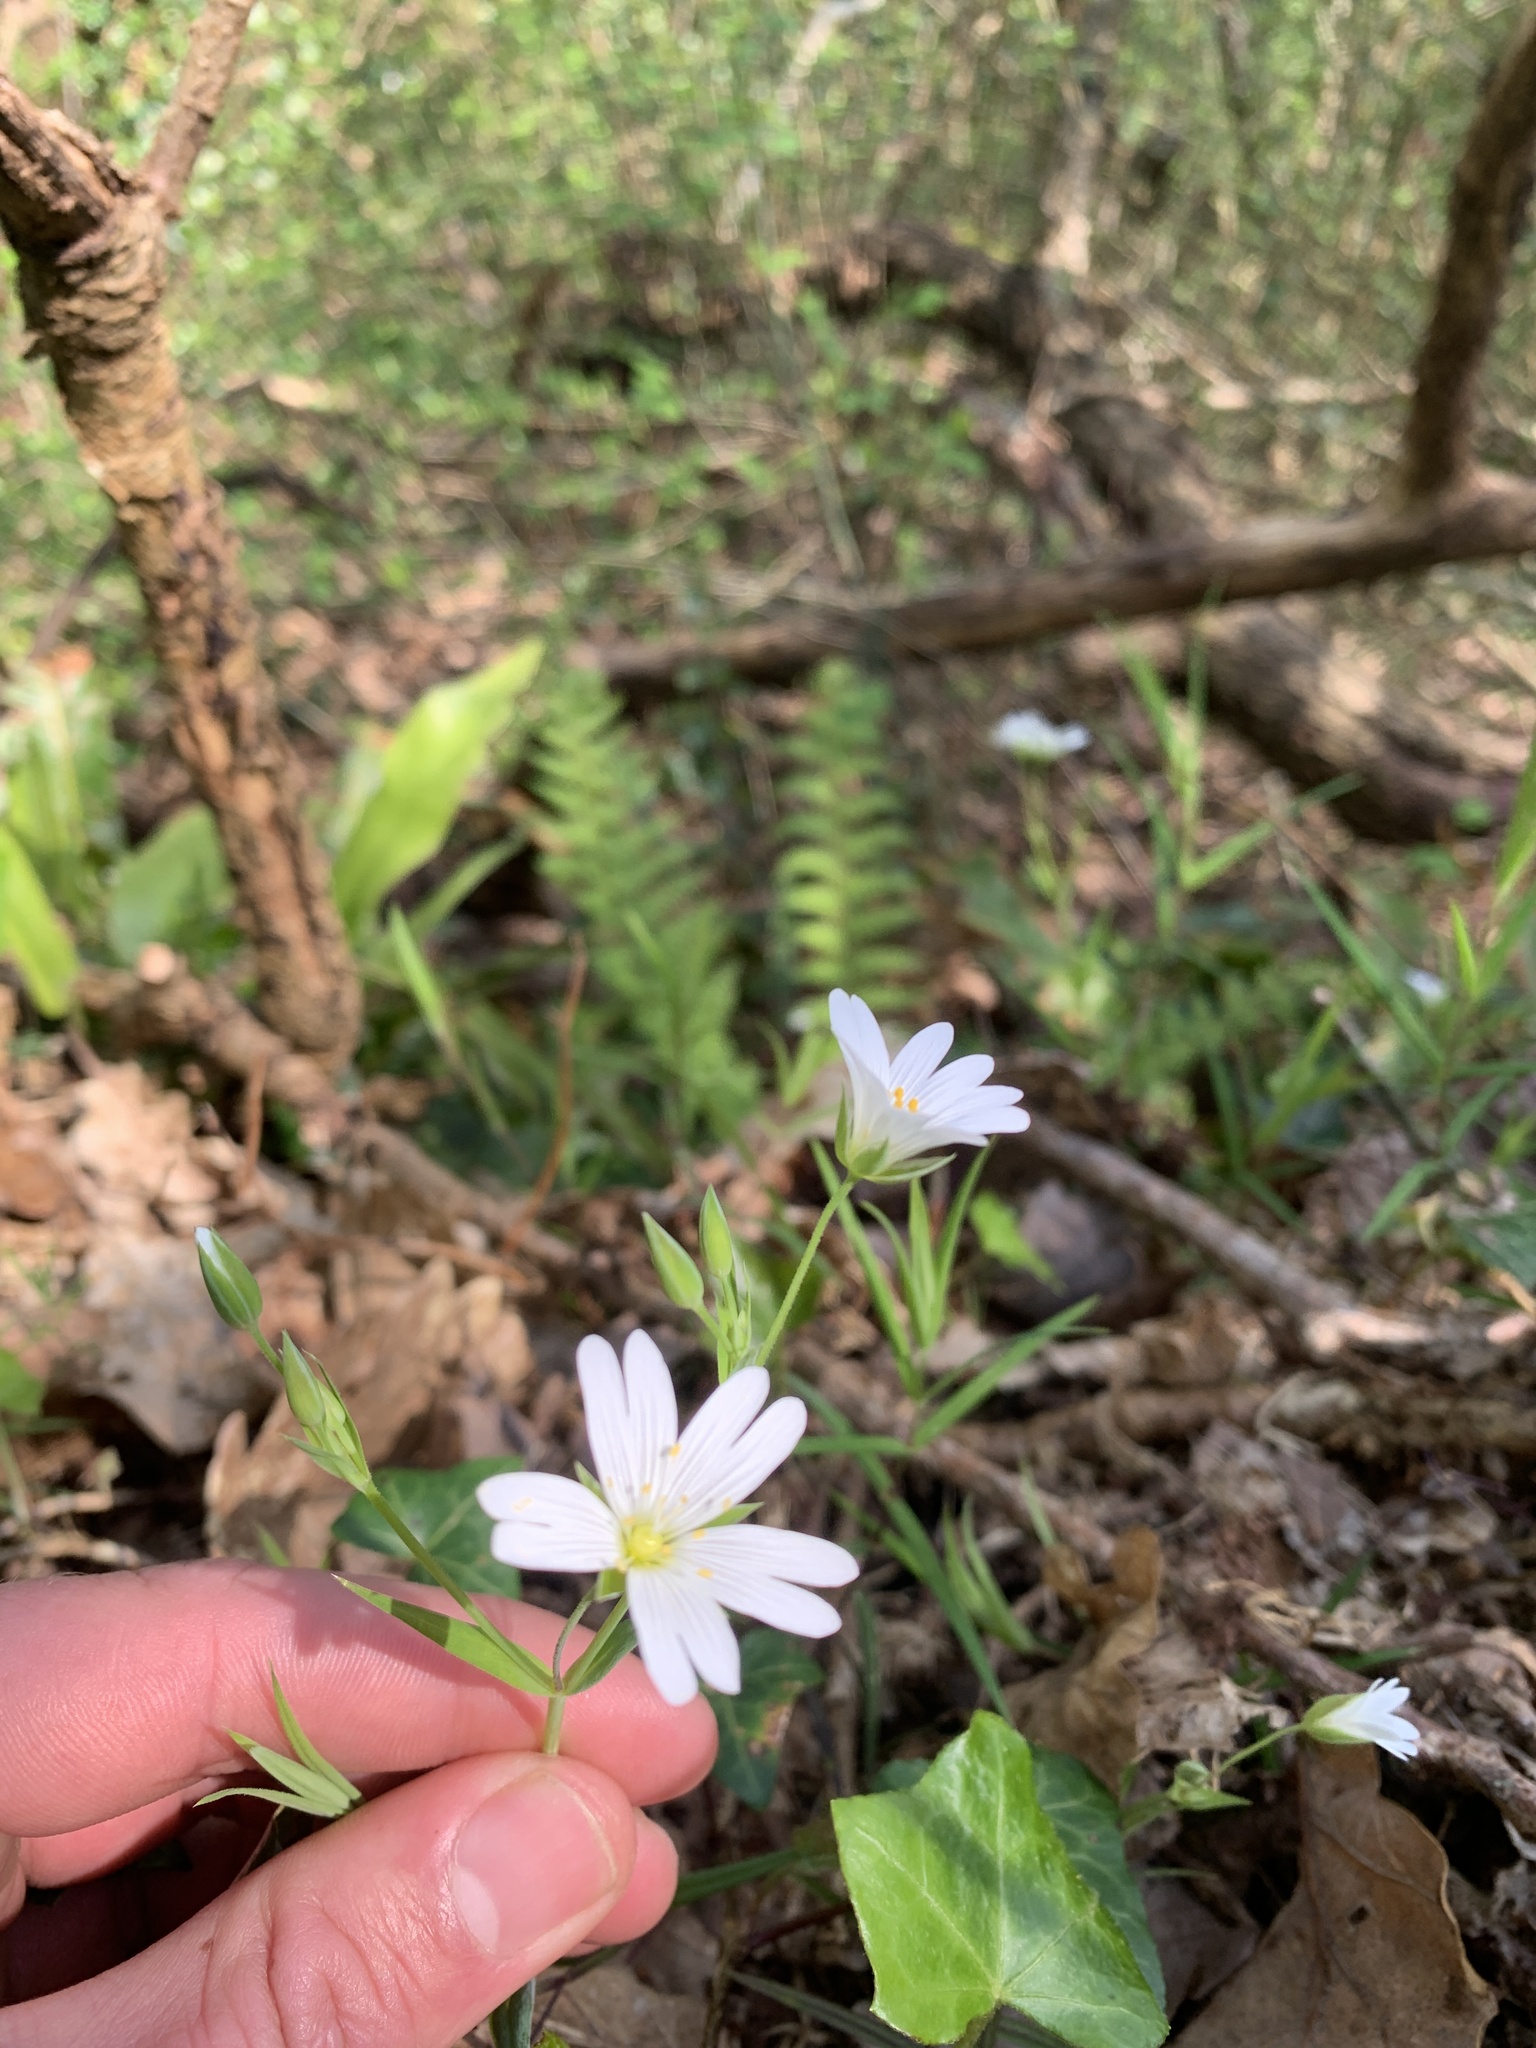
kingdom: Plantae
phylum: Tracheophyta
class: Magnoliopsida
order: Caryophyllales
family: Caryophyllaceae
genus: Rabelera
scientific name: Rabelera holostea
